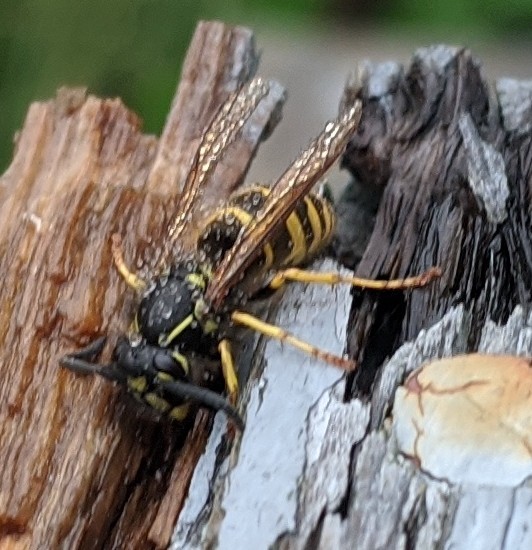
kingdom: Animalia
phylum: Arthropoda
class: Insecta
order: Hymenoptera
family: Vespidae
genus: Vespula
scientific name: Vespula alascensis
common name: Alaska yellowjacket
